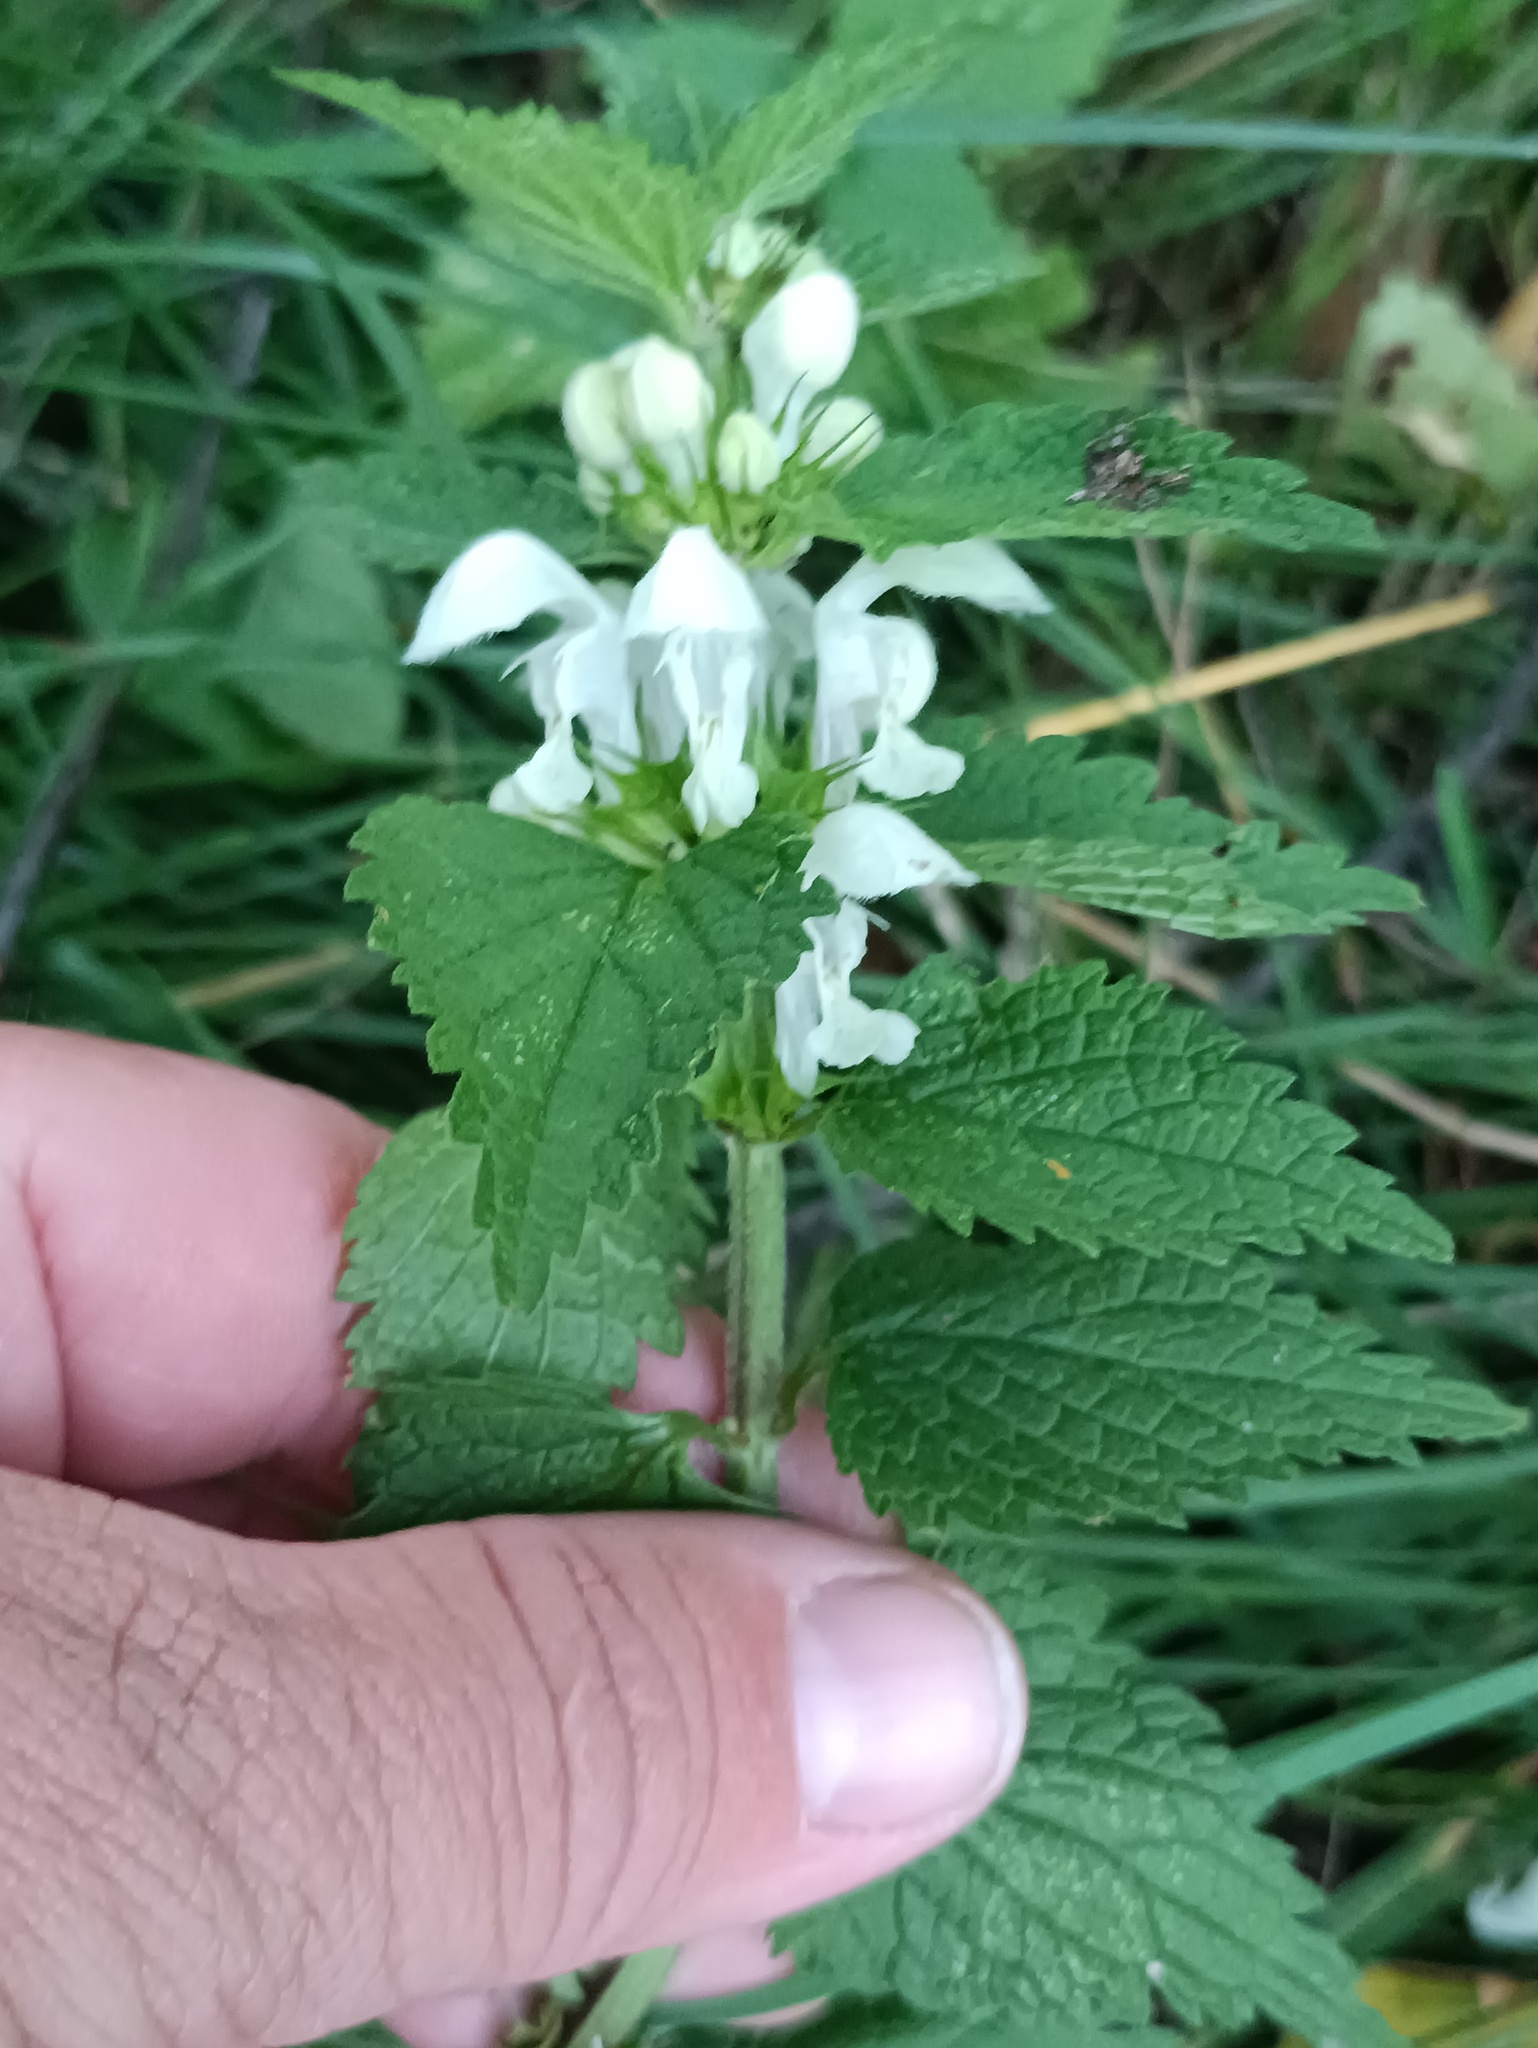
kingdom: Plantae
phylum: Tracheophyta
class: Magnoliopsida
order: Lamiales
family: Lamiaceae
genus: Lamium
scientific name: Lamium album
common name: White dead-nettle
